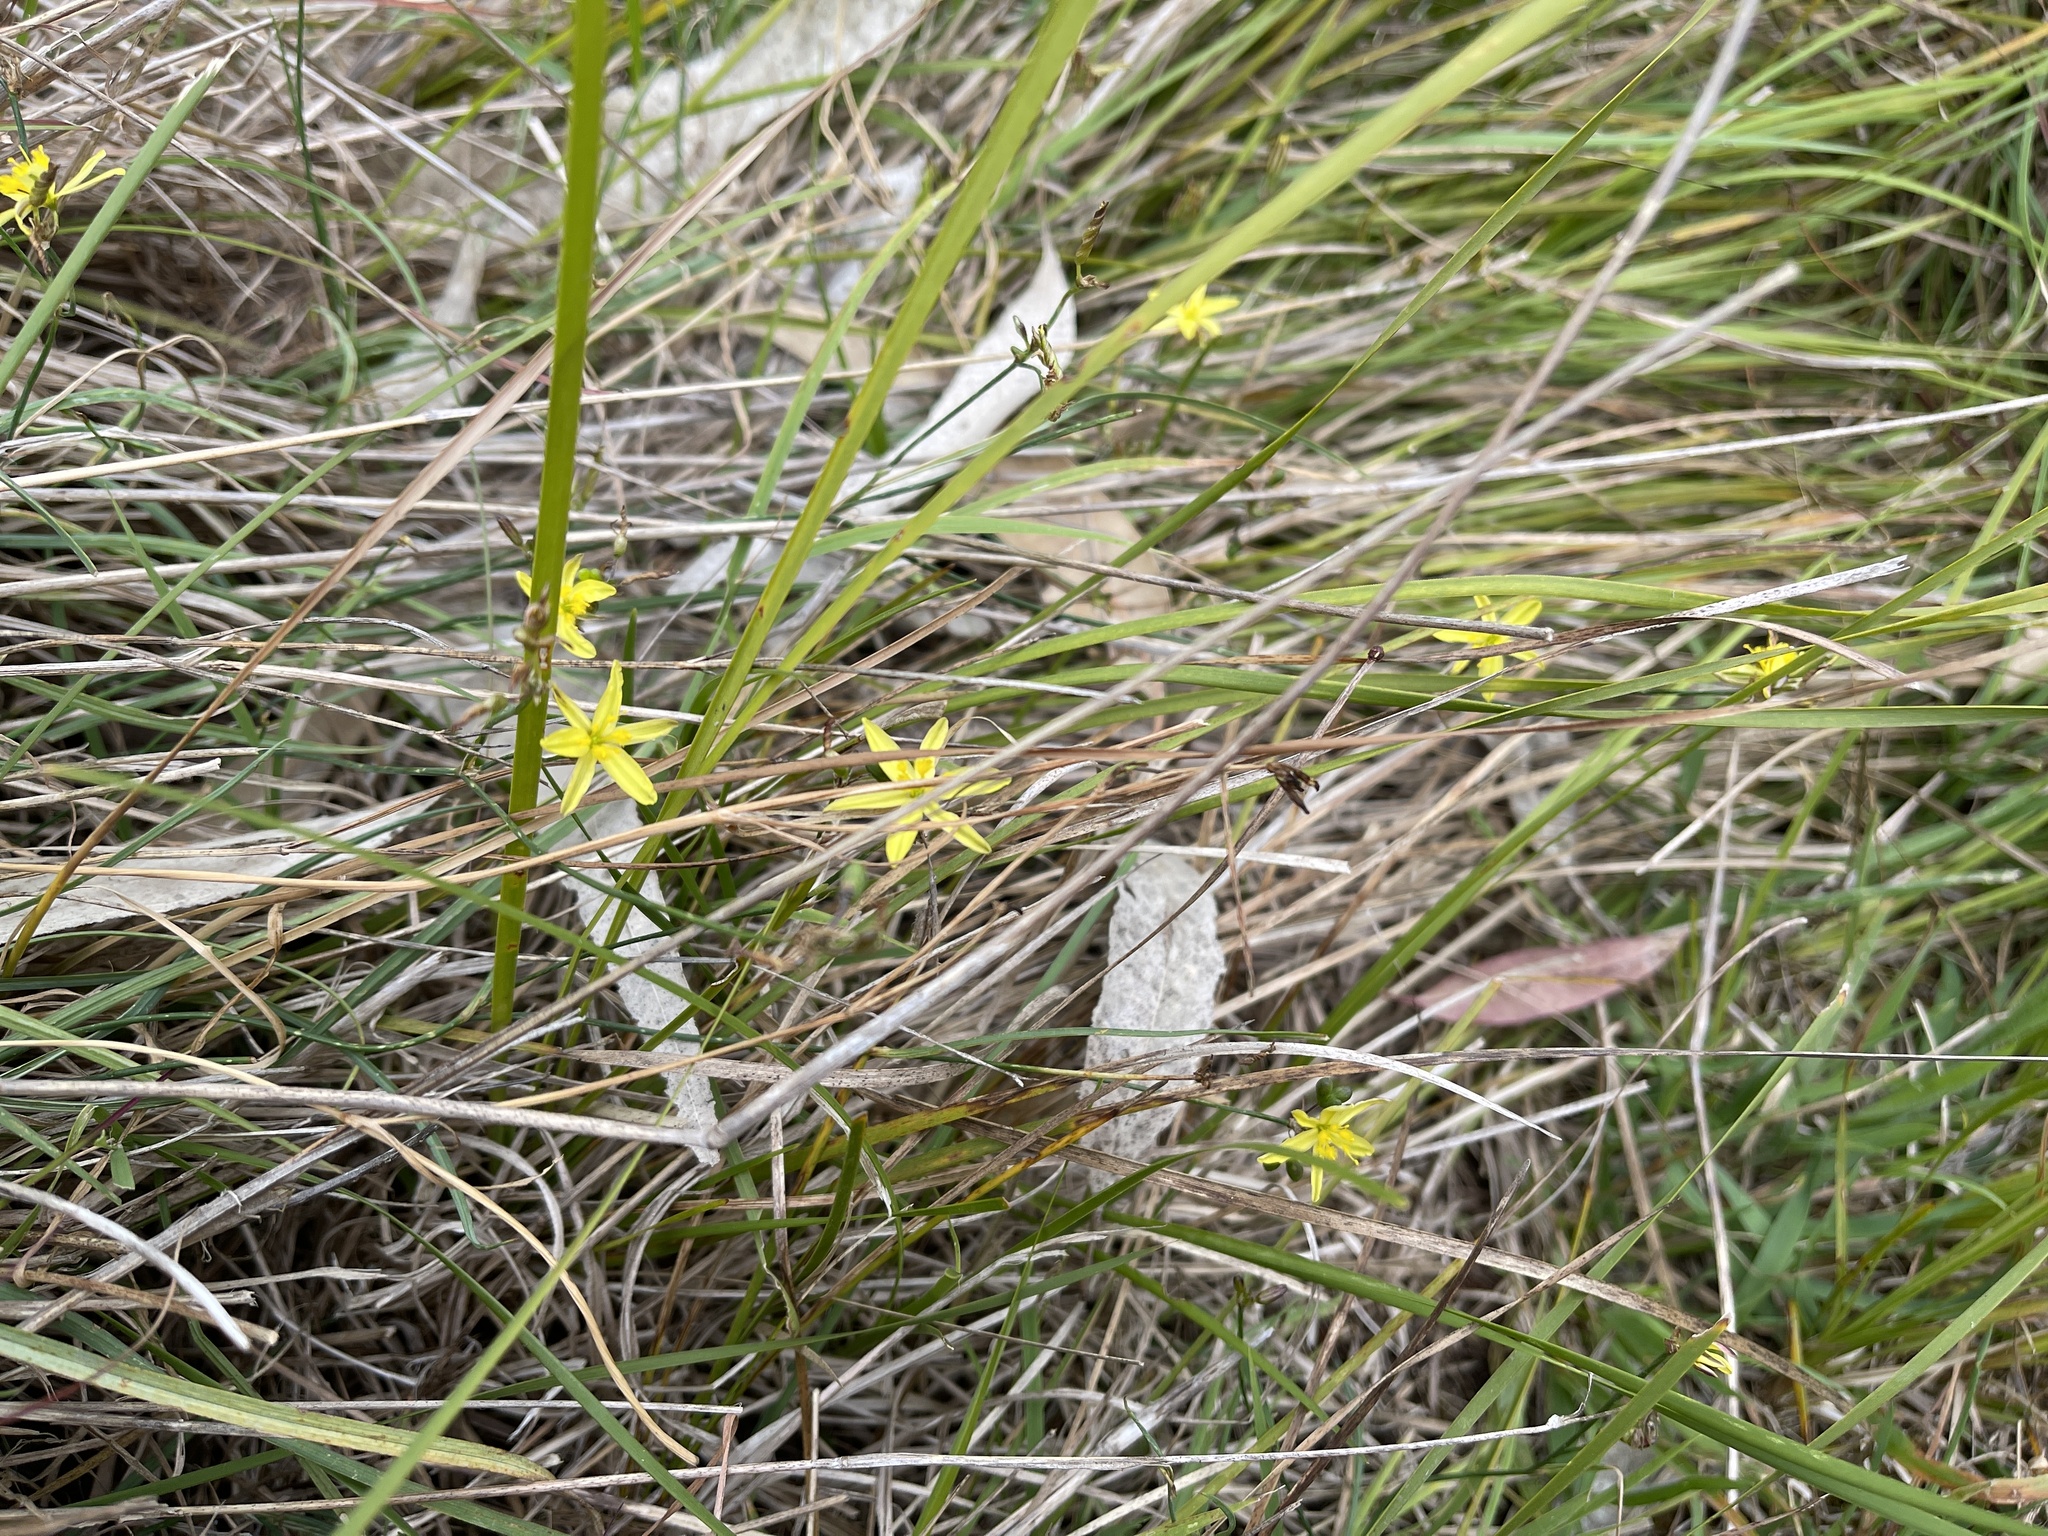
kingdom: Plantae
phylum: Tracheophyta
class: Liliopsida
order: Asparagales
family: Asphodelaceae
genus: Tricoryne
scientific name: Tricoryne elatior
